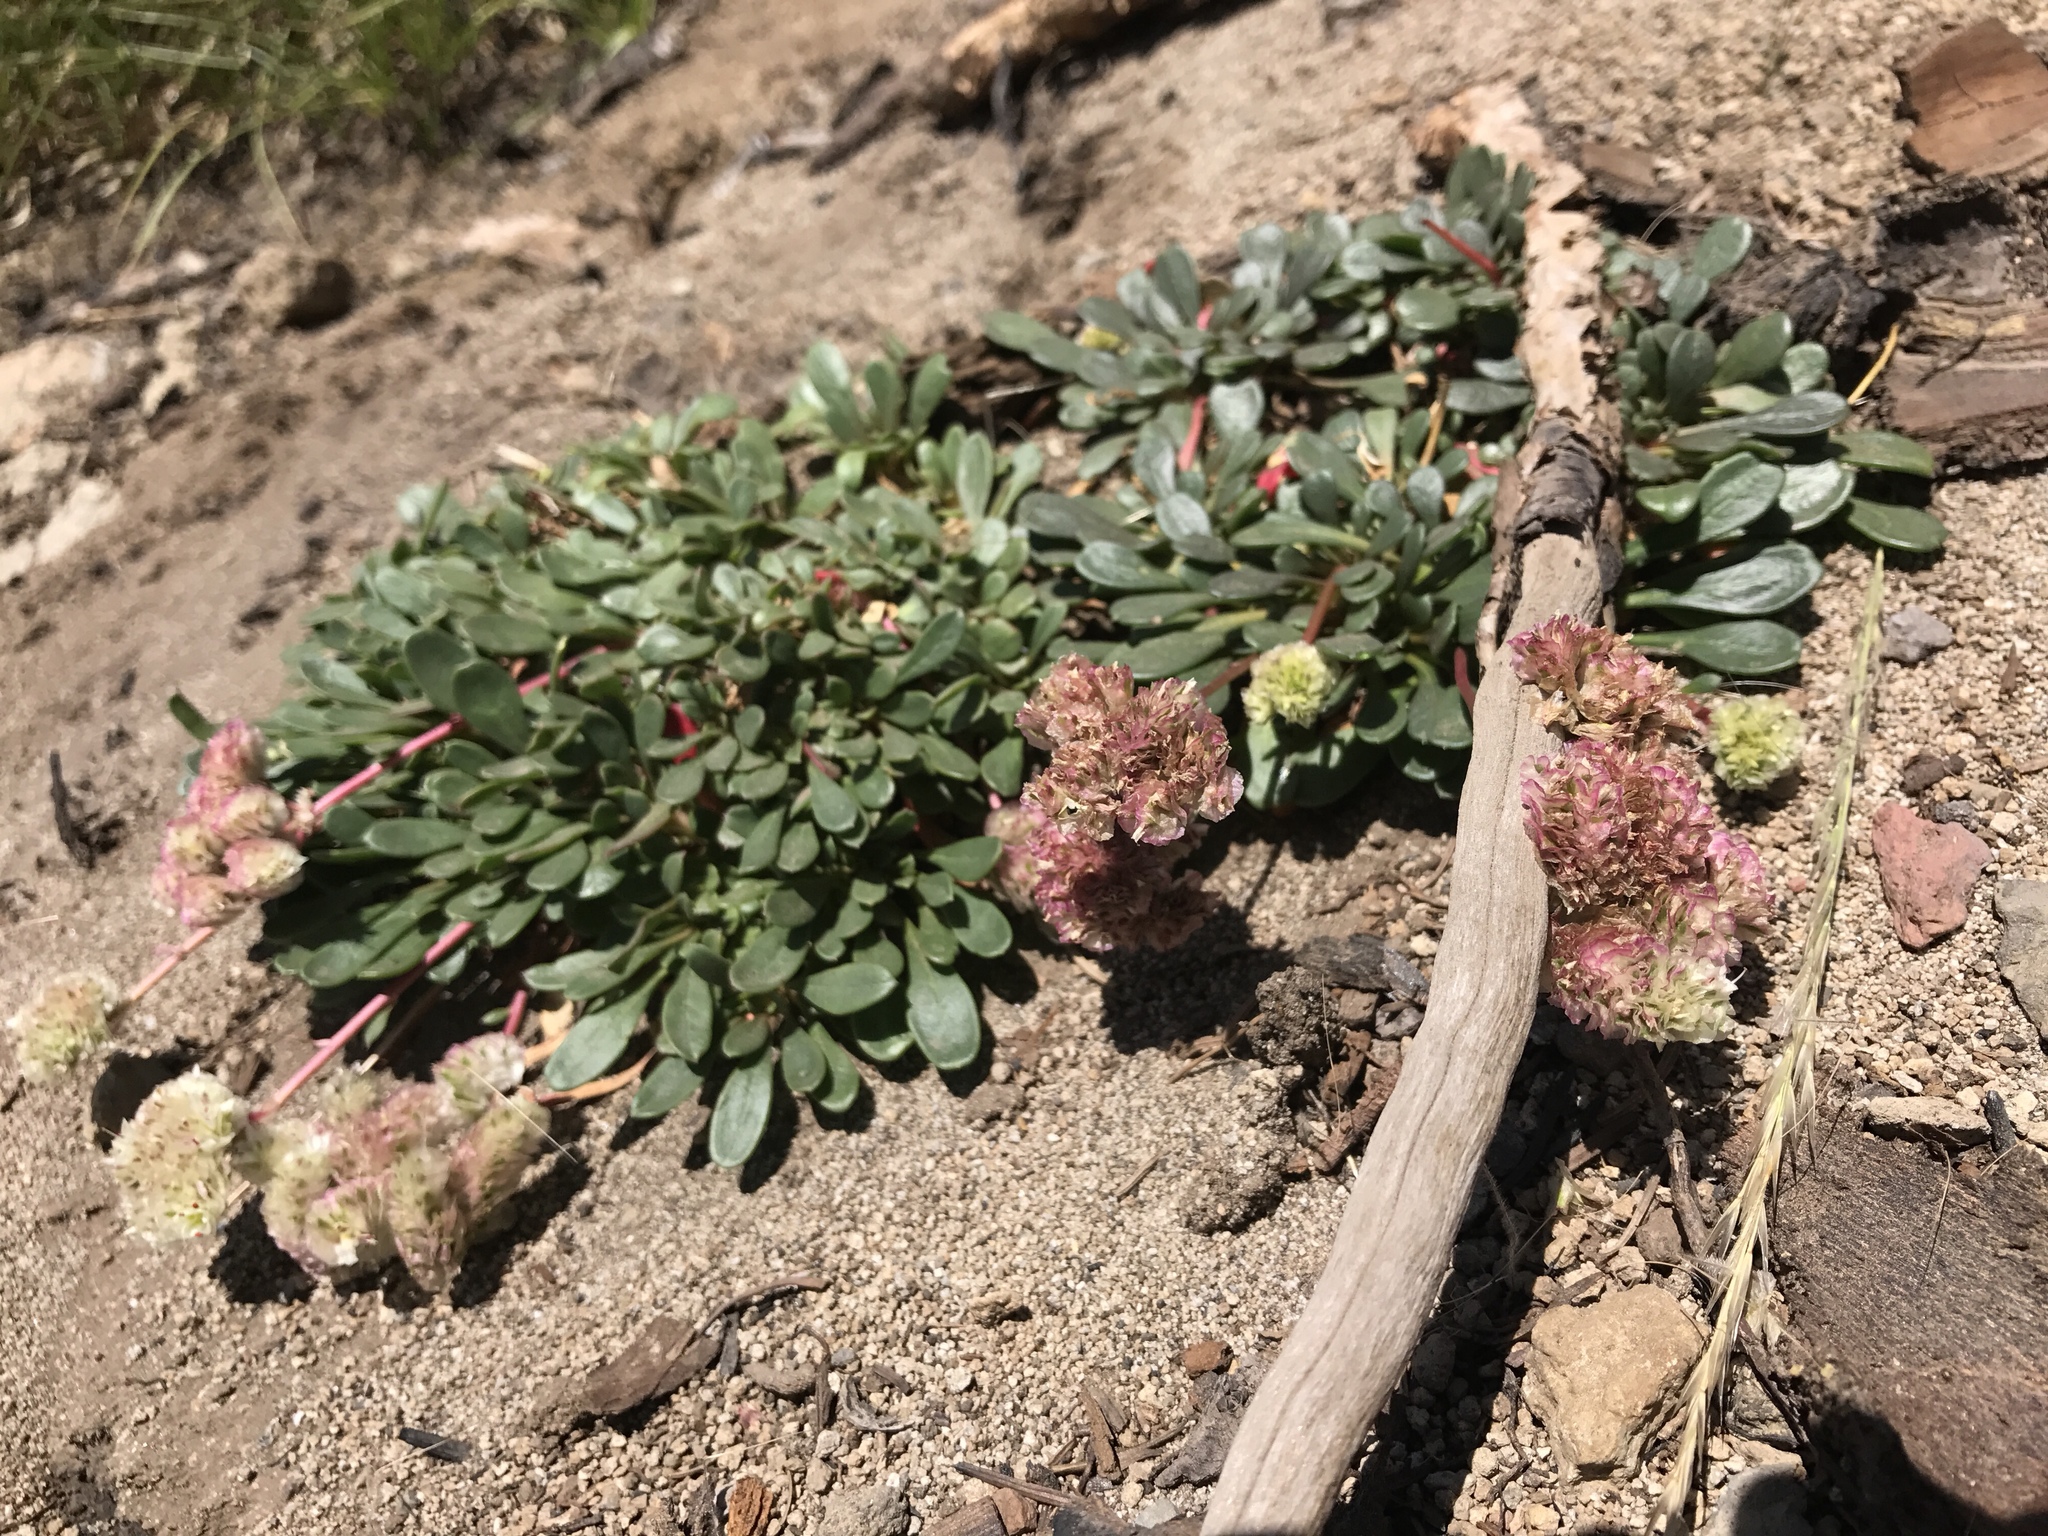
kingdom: Plantae
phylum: Tracheophyta
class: Magnoliopsida
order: Caryophyllales
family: Montiaceae
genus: Calyptridium
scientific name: Calyptridium umbellatum
